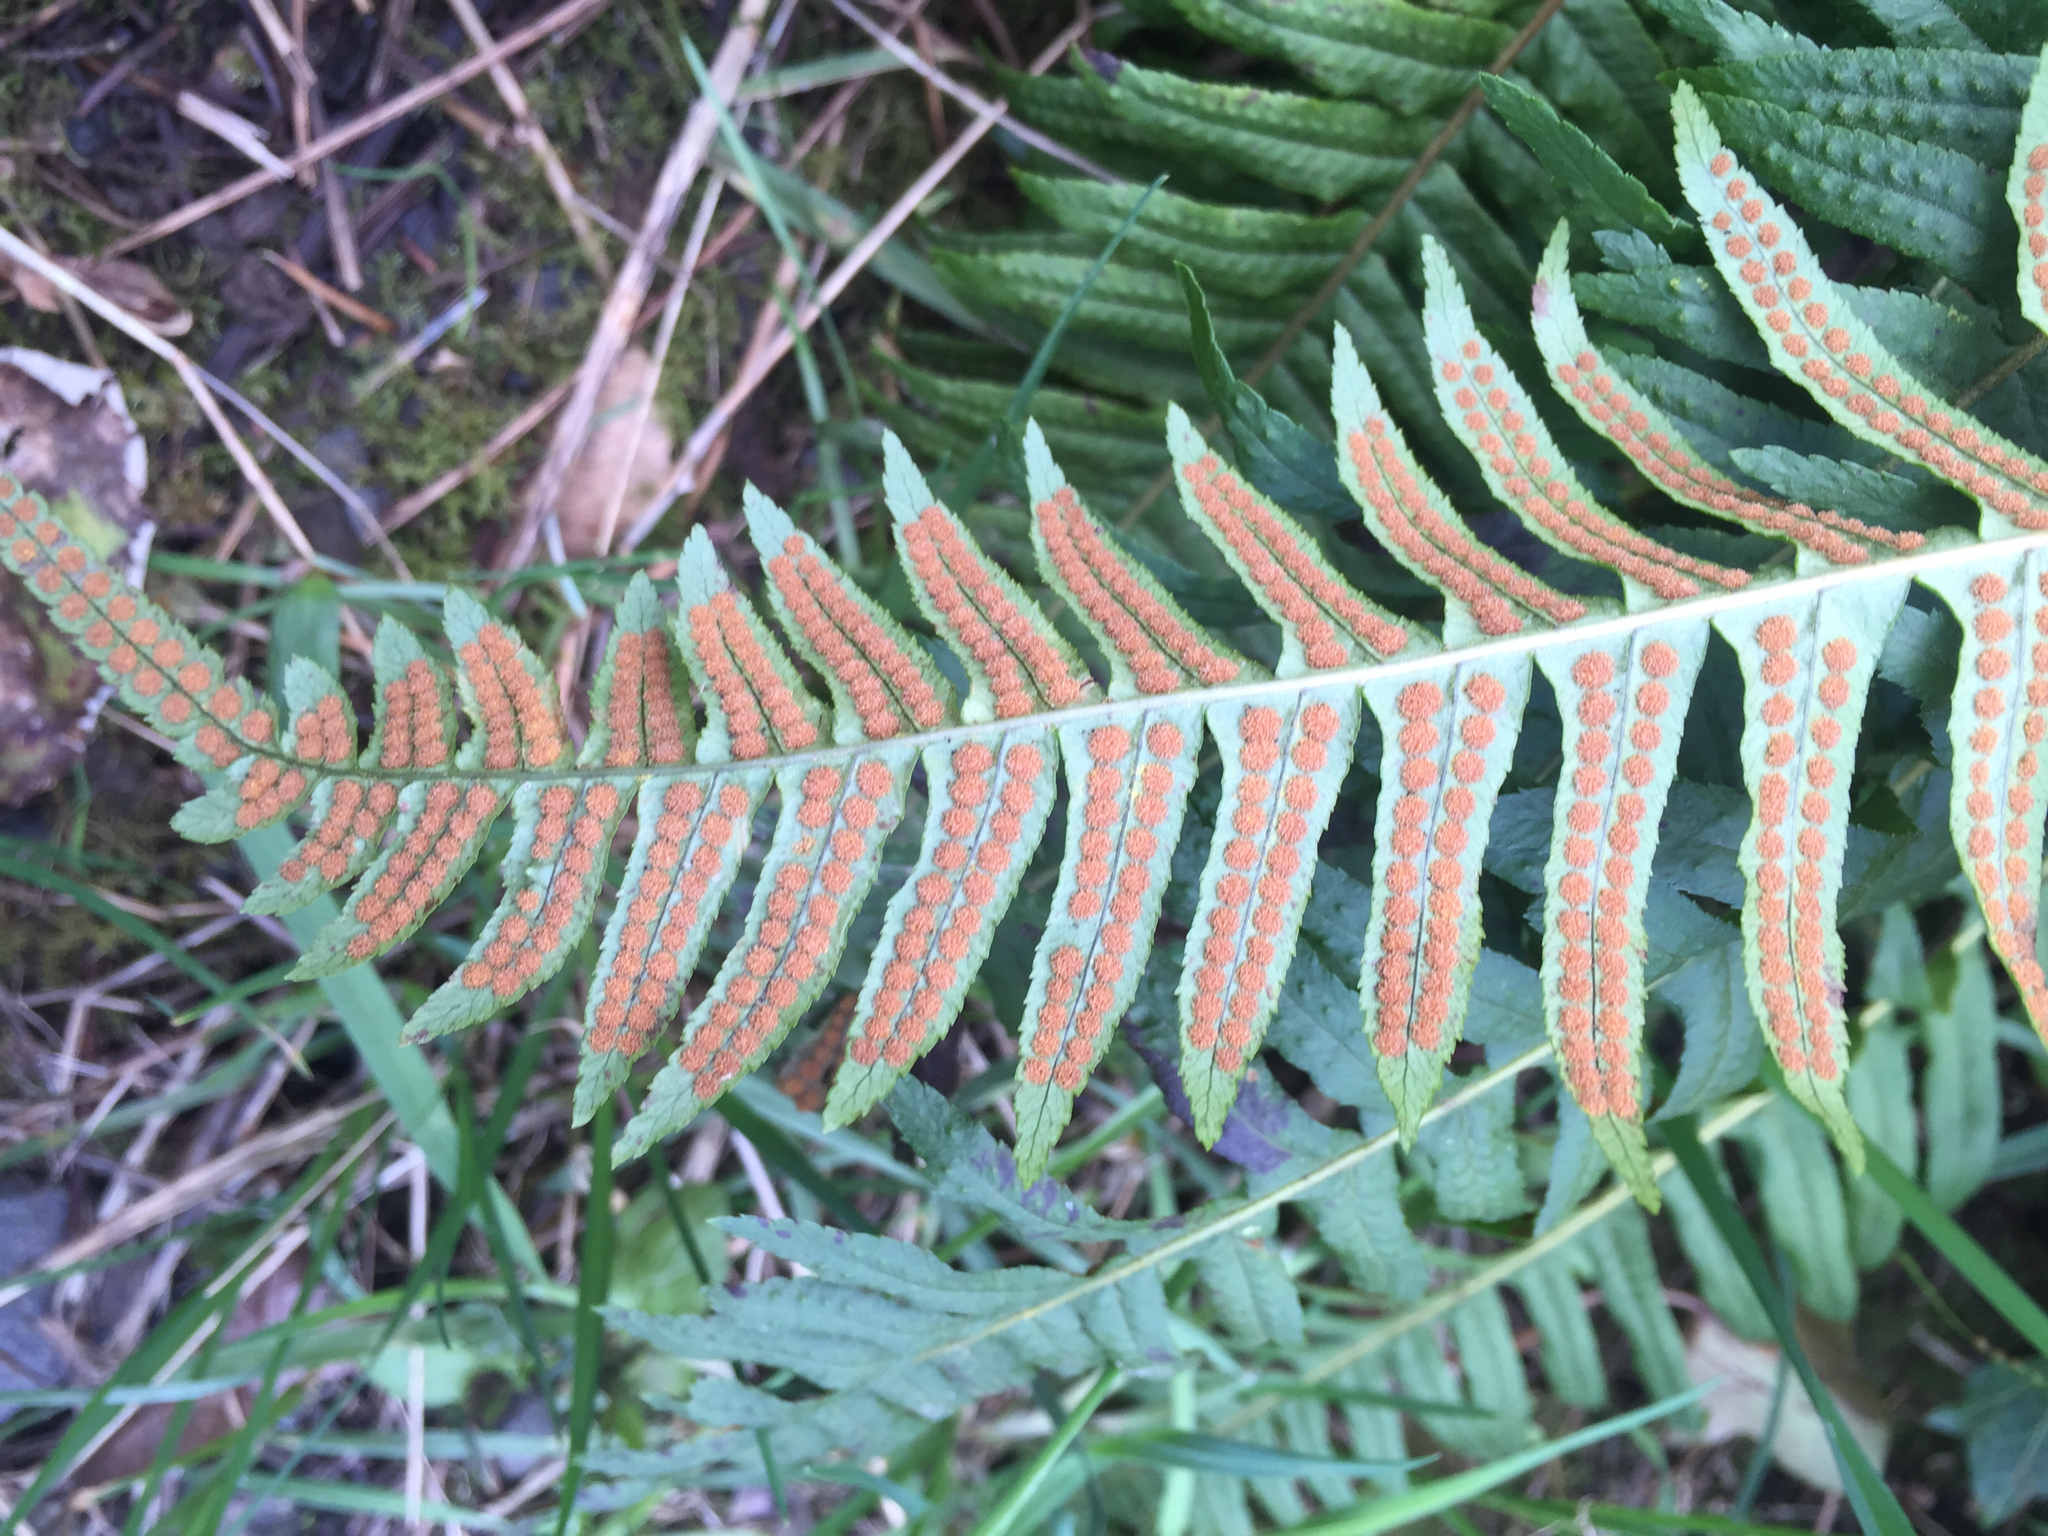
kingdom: Plantae
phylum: Tracheophyta
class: Polypodiopsida
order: Polypodiales
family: Polypodiaceae
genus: Polypodium
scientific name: Polypodium glycyrrhiza
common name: Licorice fern
